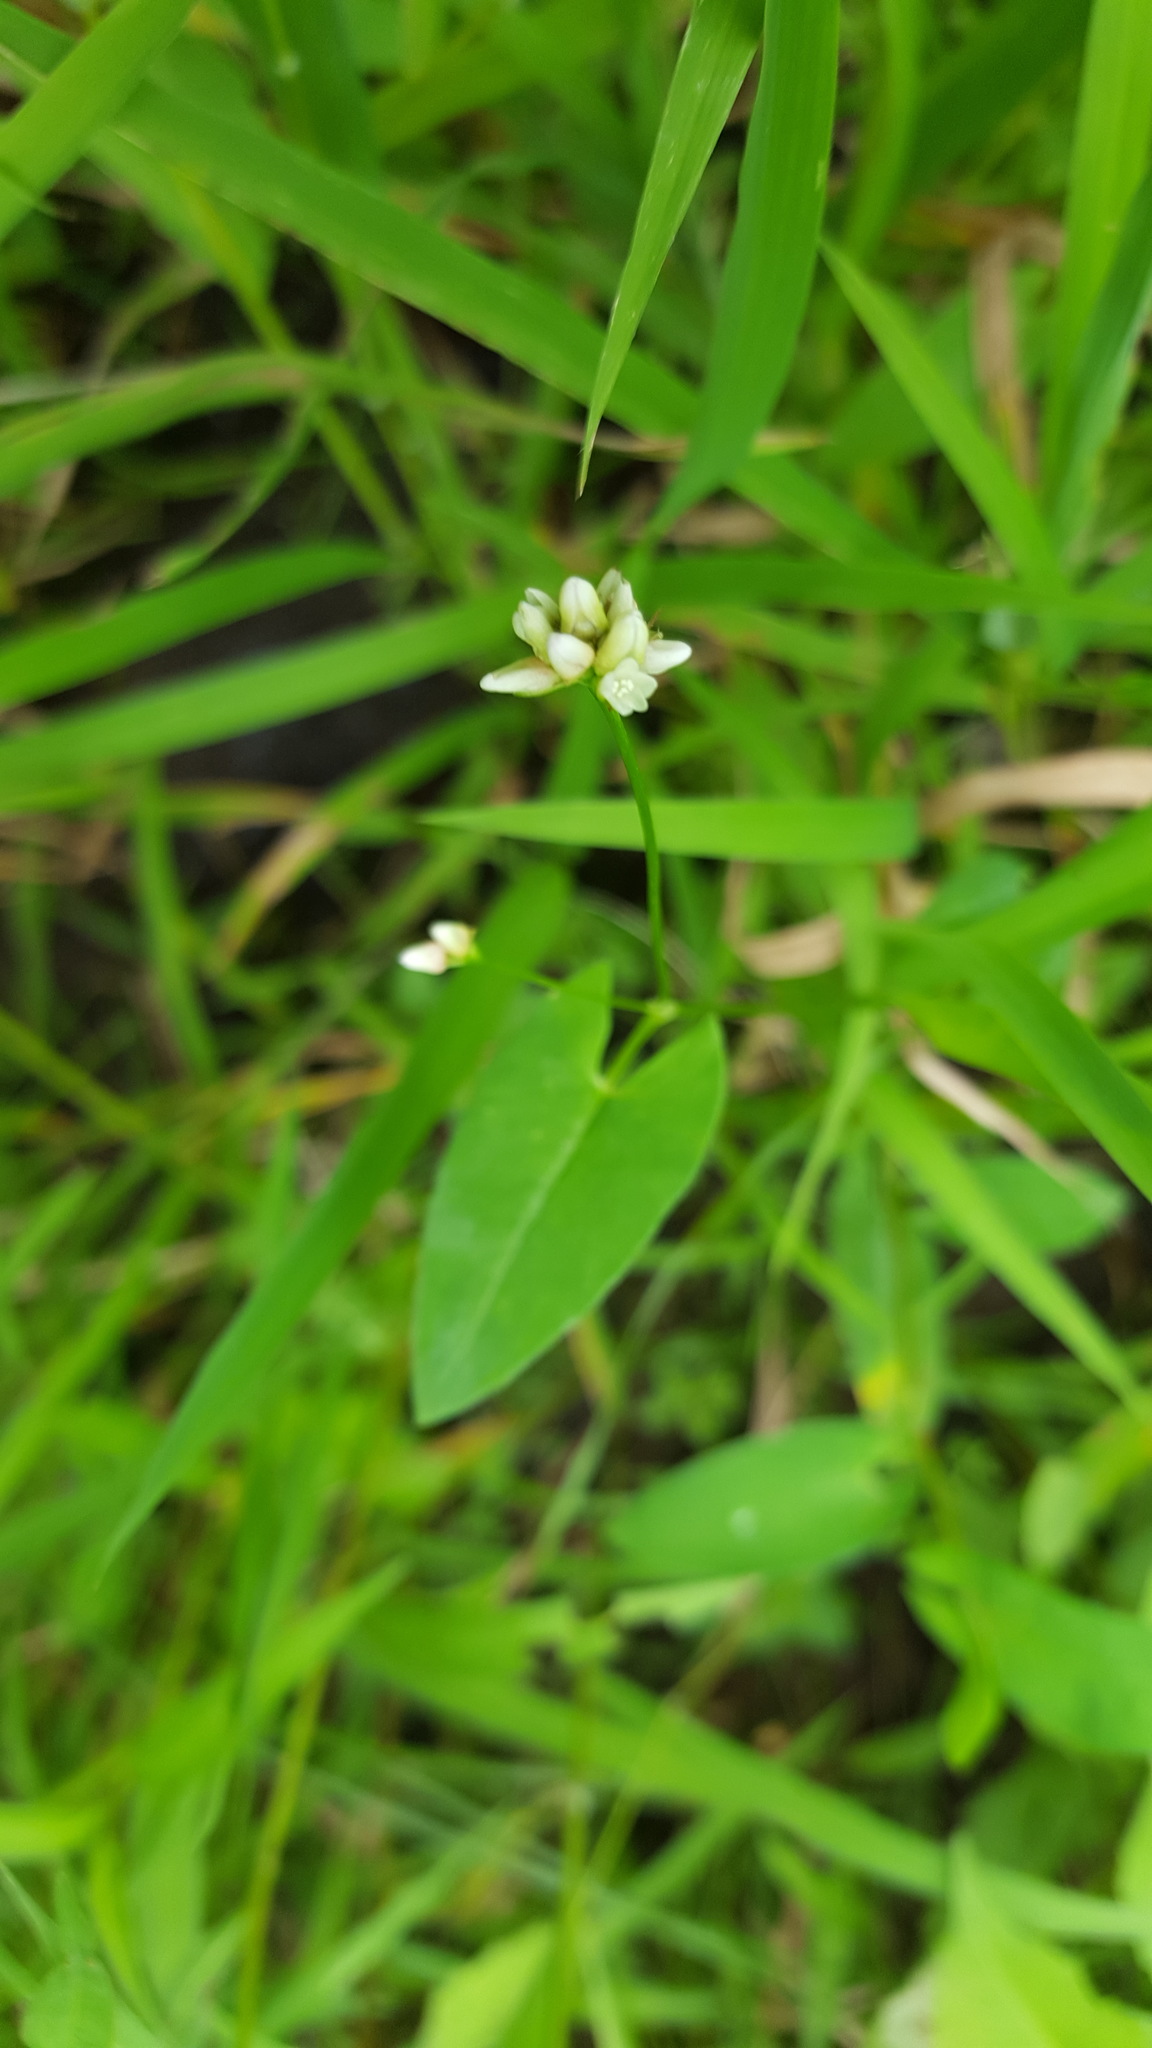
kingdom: Plantae
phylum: Tracheophyta
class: Magnoliopsida
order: Caryophyllales
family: Polygonaceae
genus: Persicaria
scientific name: Persicaria sagittata
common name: American tearthumb
